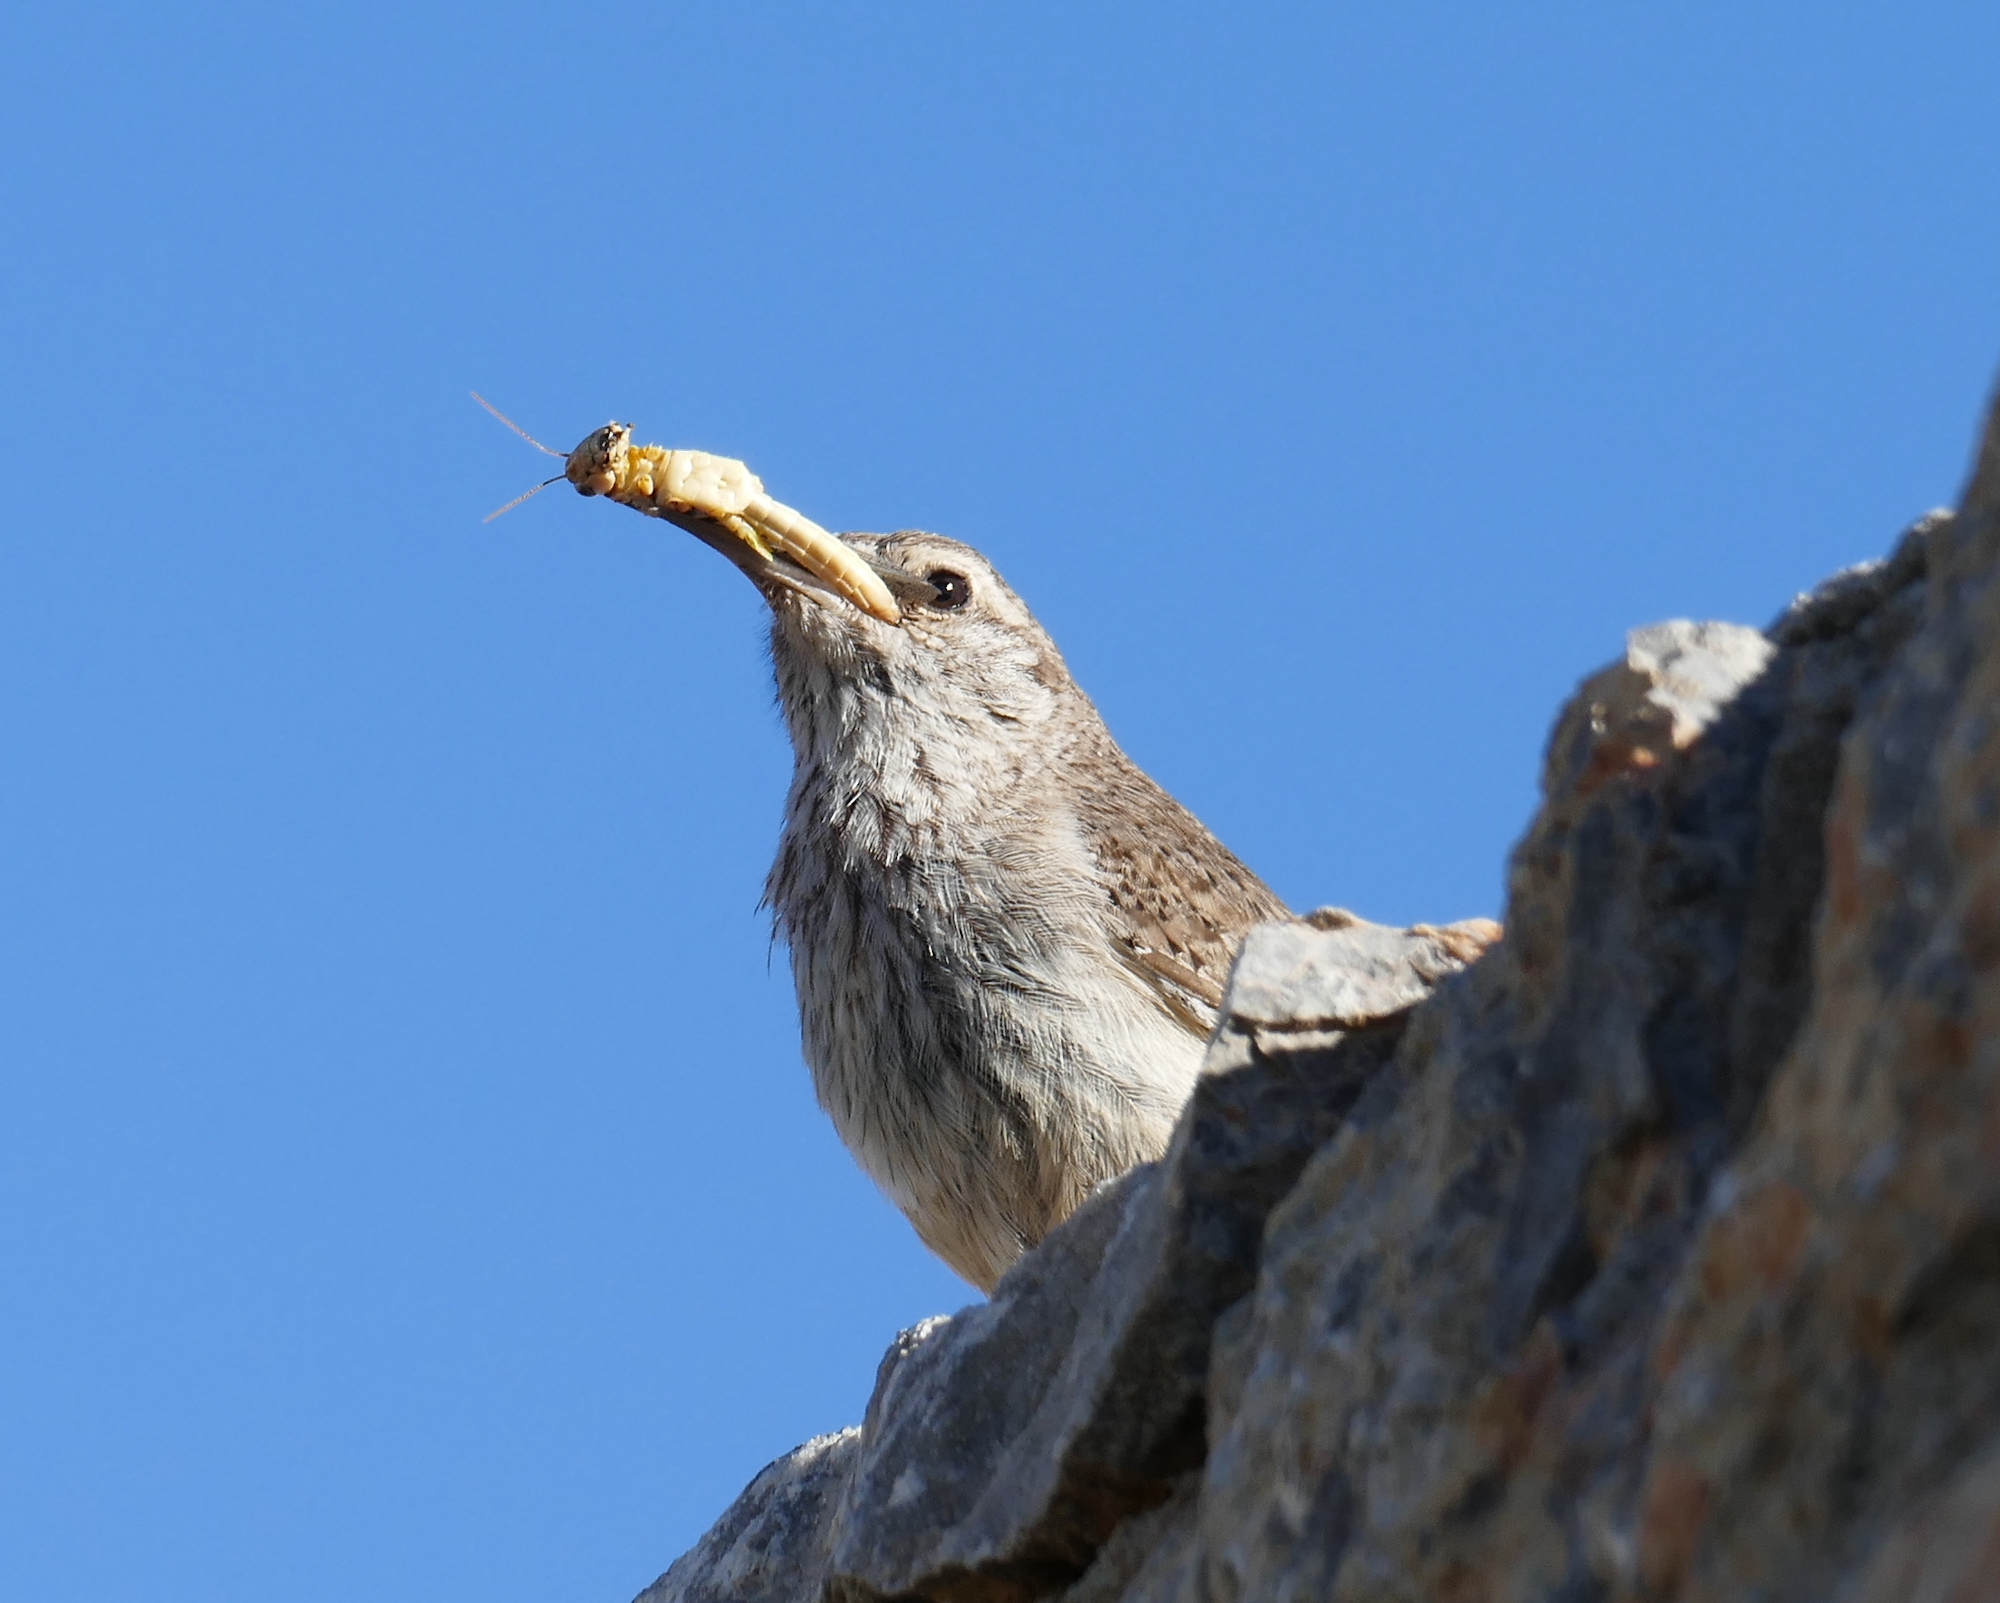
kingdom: Animalia
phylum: Chordata
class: Aves
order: Passeriformes
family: Troglodytidae
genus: Salpinctes
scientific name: Salpinctes obsoletus
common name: Rock wren
